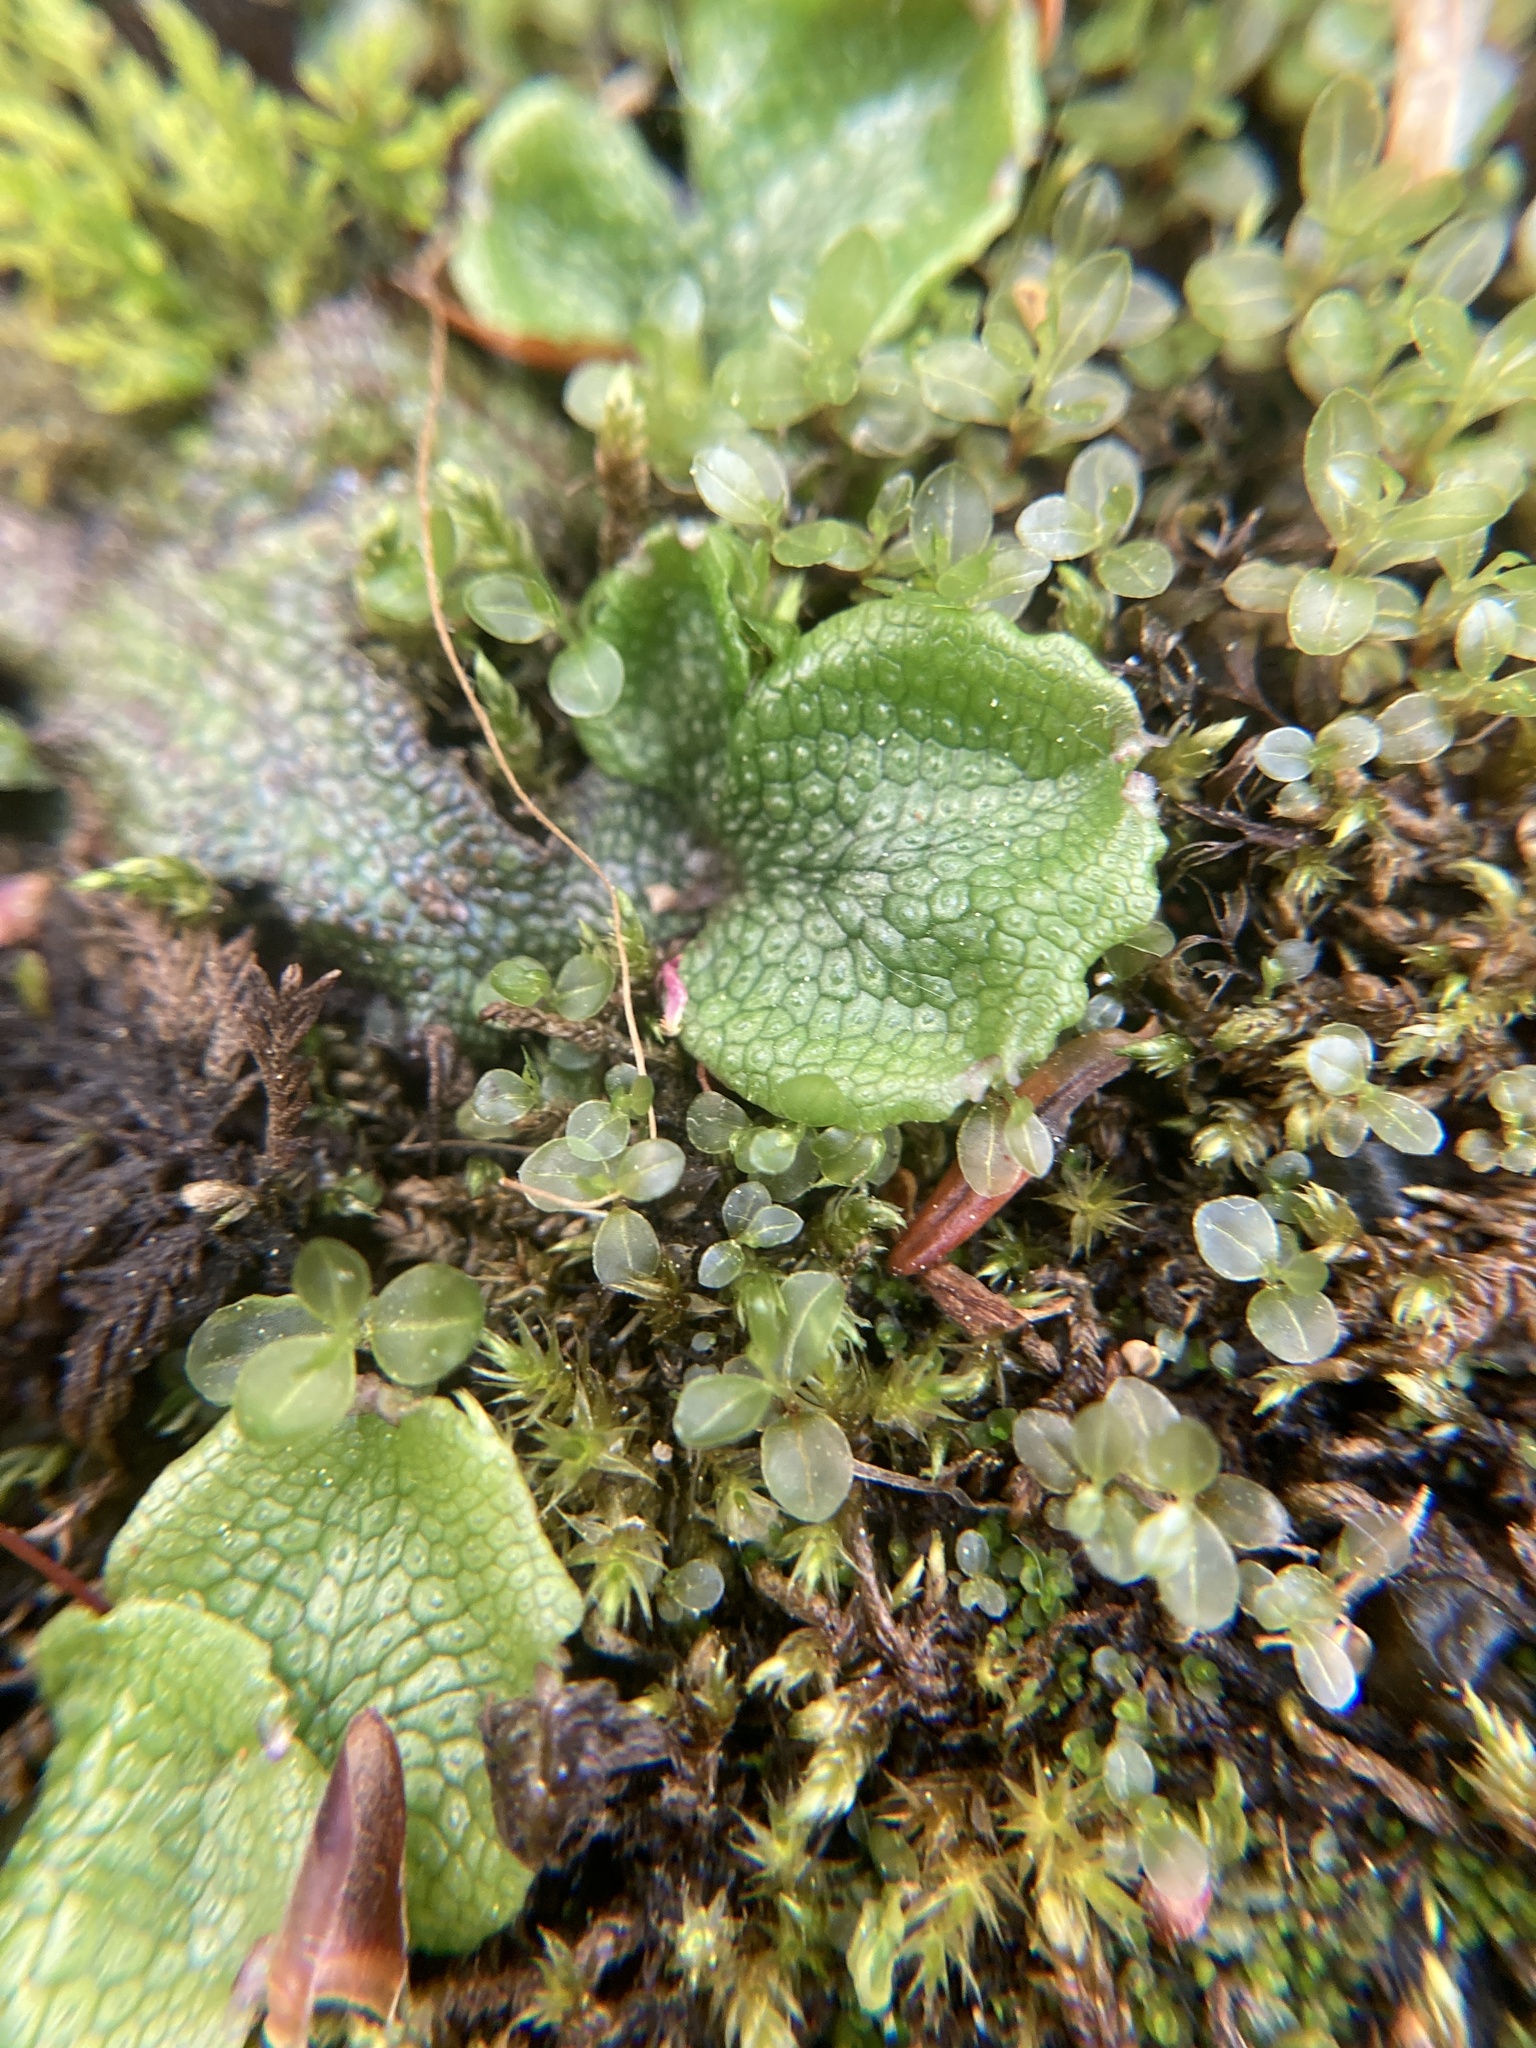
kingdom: Plantae
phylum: Marchantiophyta
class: Marchantiopsida
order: Marchantiales
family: Conocephalaceae
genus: Conocephalum
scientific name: Conocephalum salebrosum
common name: Cat-tongue liverwort
